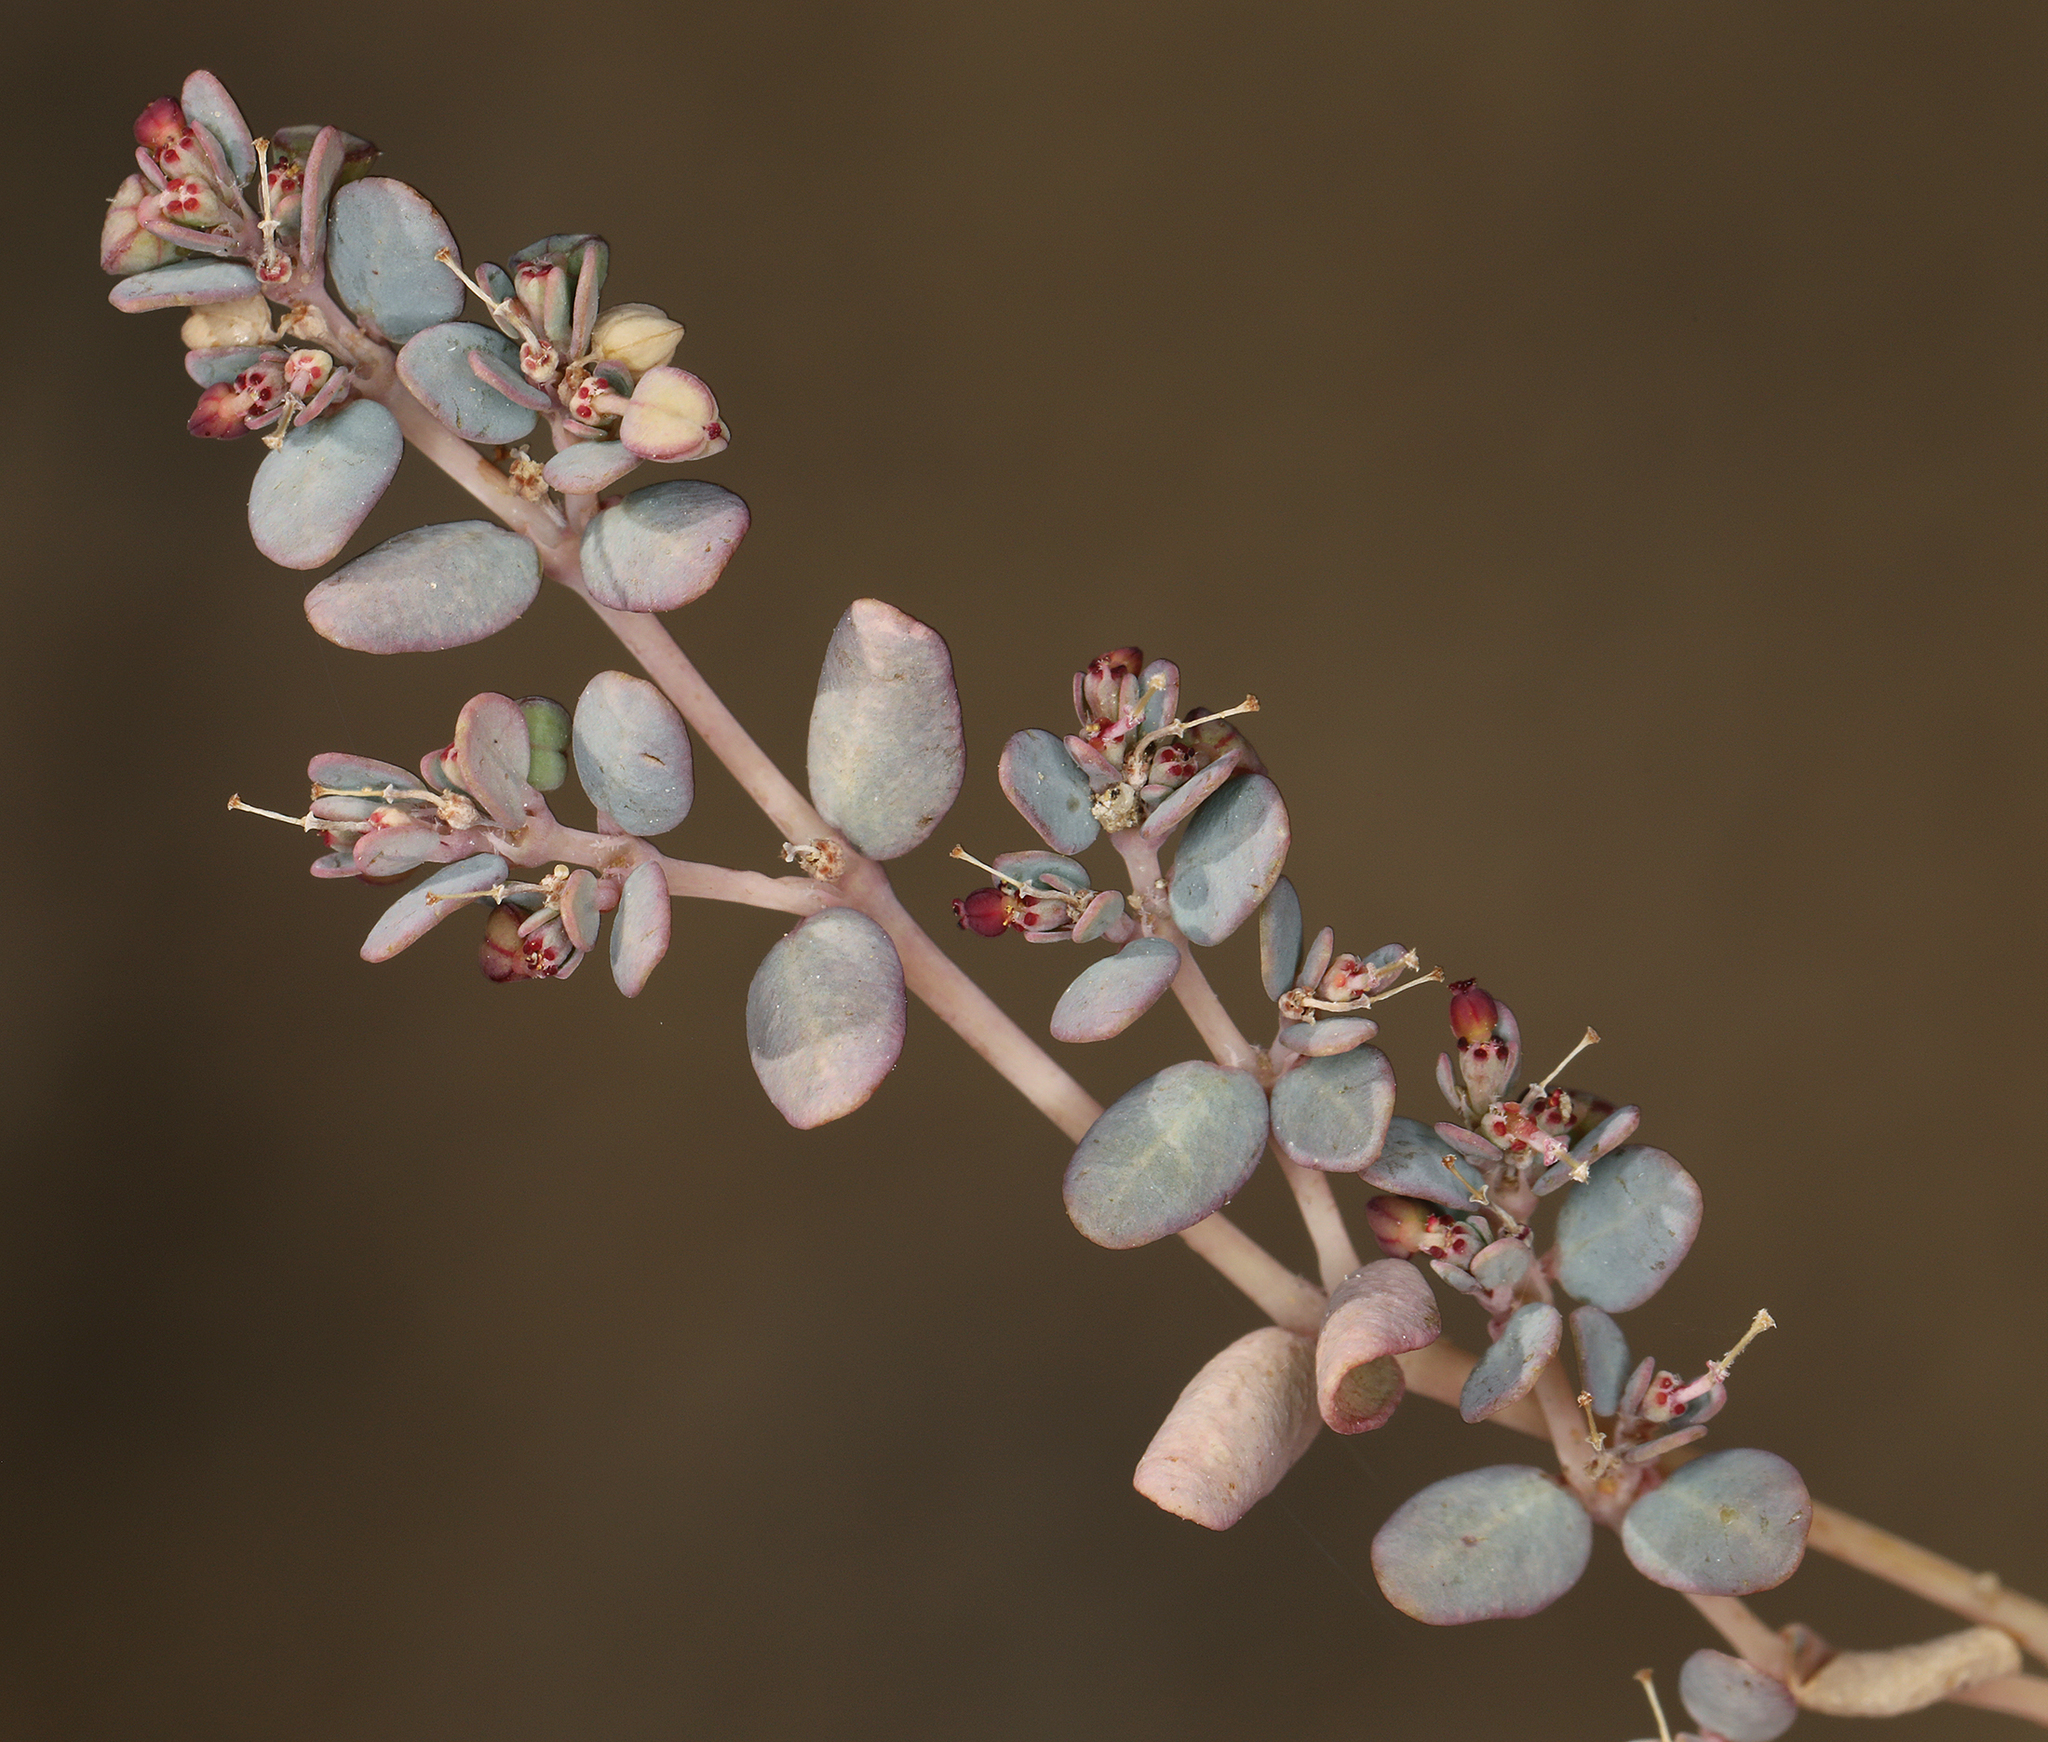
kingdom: Plantae
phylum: Tracheophyta
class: Magnoliopsida
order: Malpighiales
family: Euphorbiaceae
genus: Euphorbia
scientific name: Euphorbia micromera
